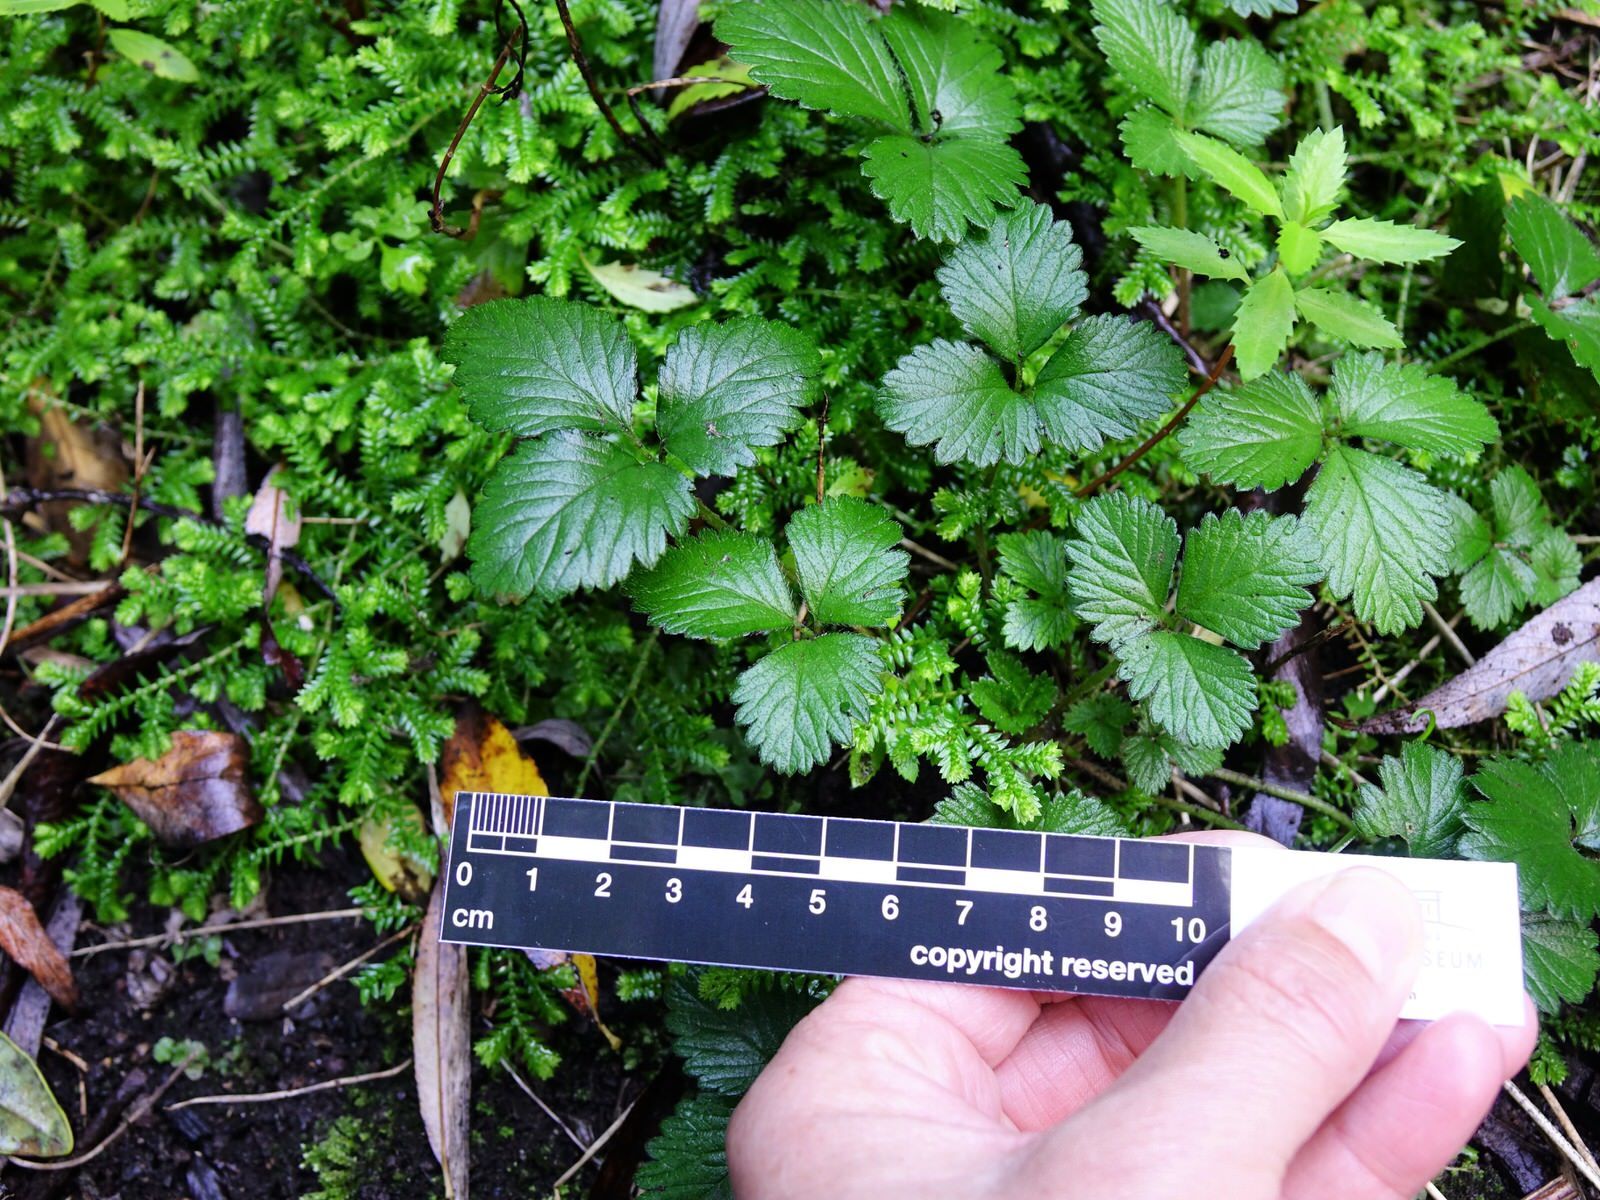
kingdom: Plantae
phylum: Tracheophyta
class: Magnoliopsida
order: Rosales
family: Rosaceae
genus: Potentilla
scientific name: Potentilla indica
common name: Yellow-flowered strawberry
